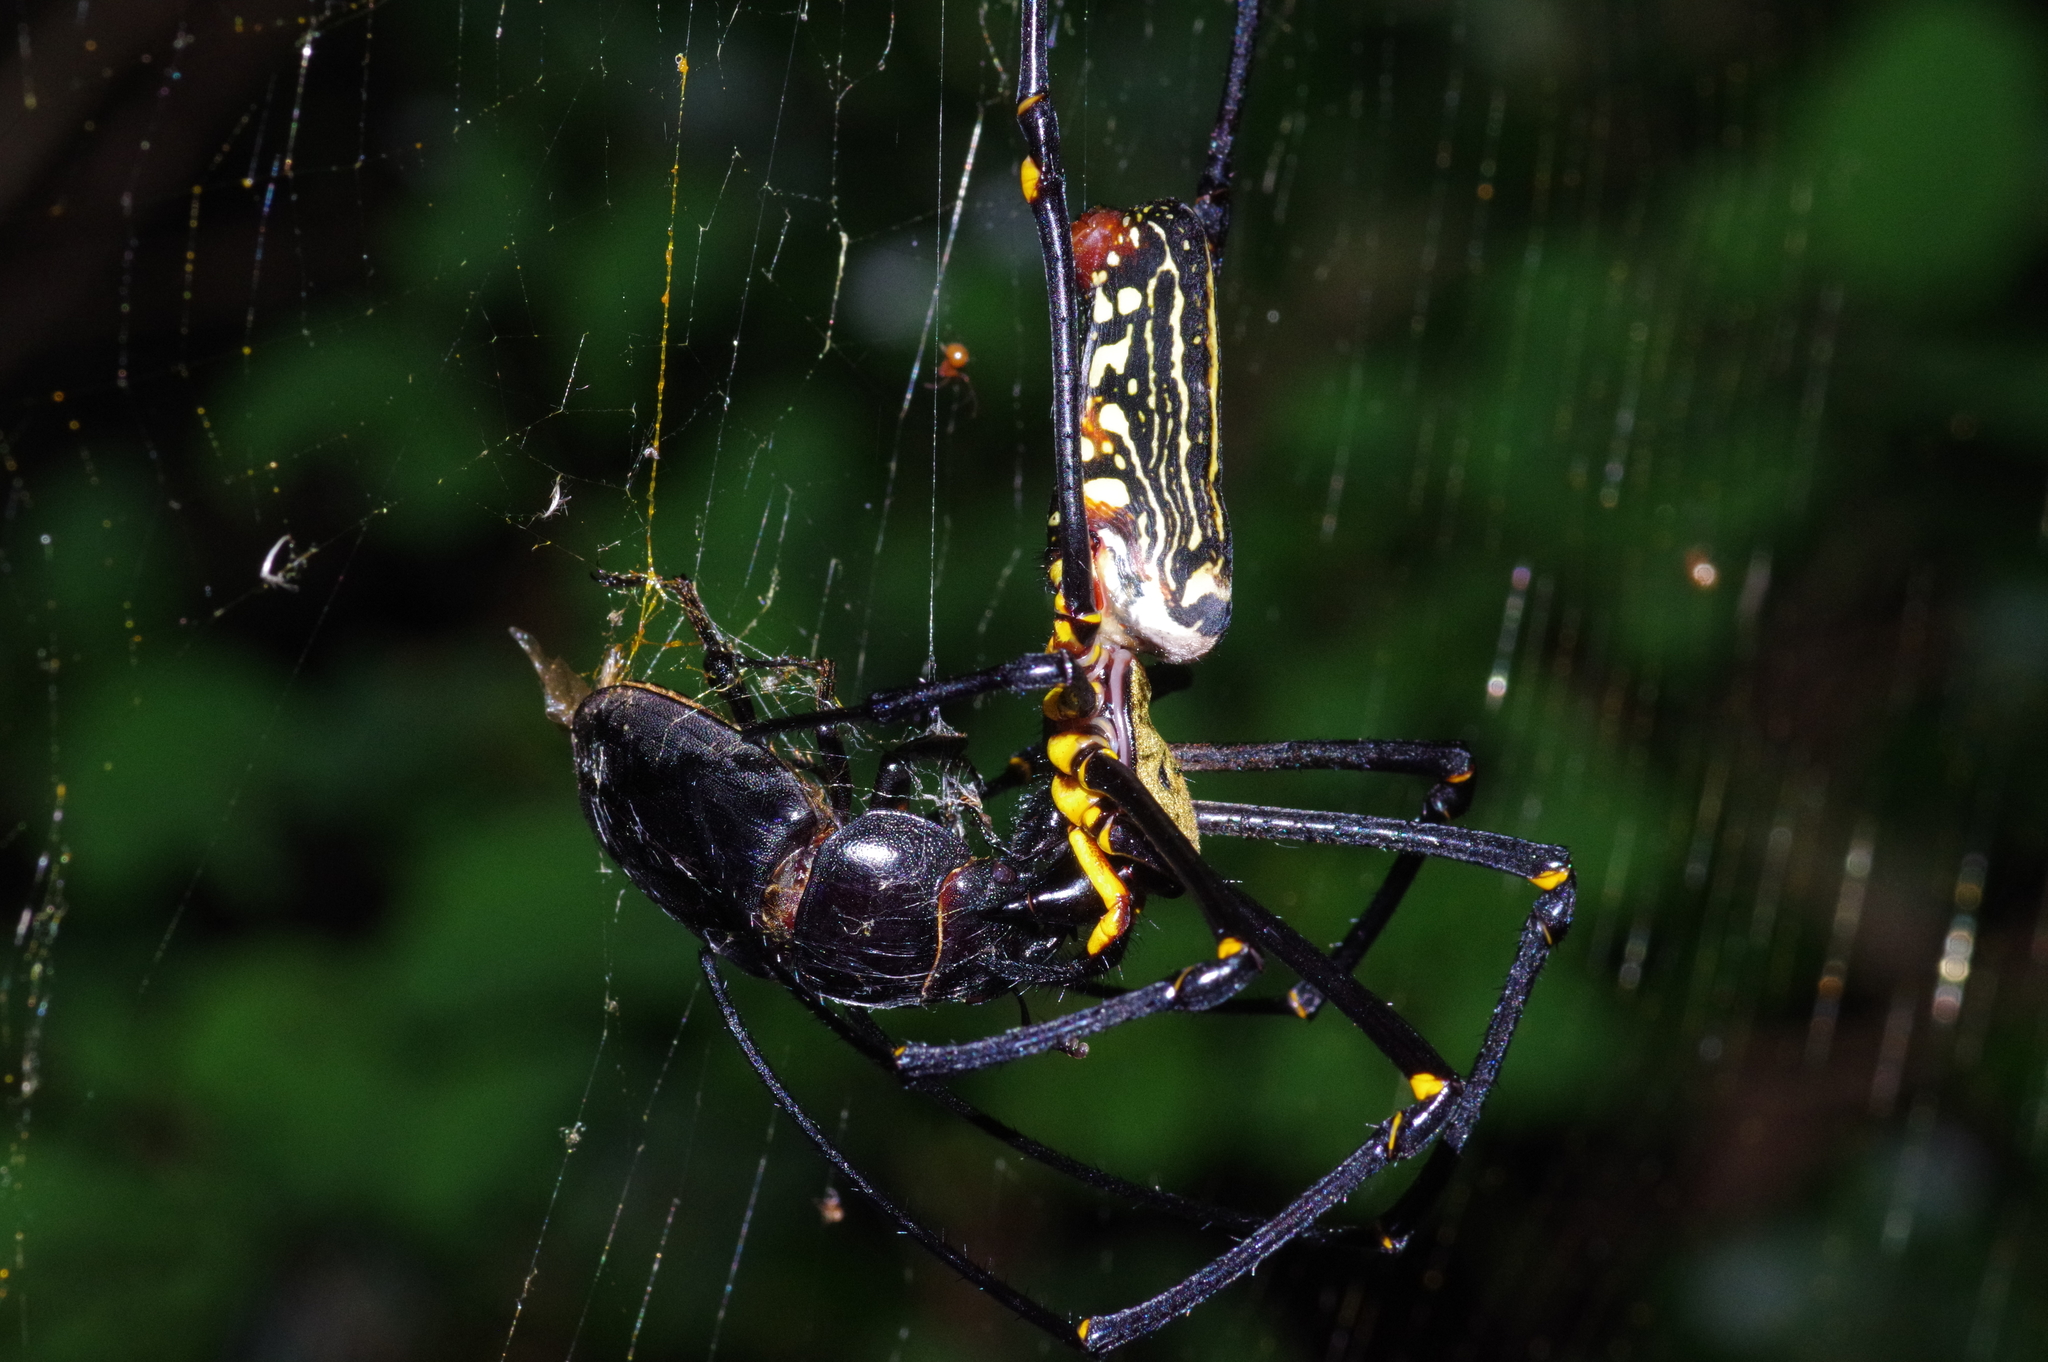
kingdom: Animalia
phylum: Arthropoda
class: Insecta
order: Coleoptera
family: Lucanidae
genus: Serrognathus
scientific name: Serrognathus titanus
